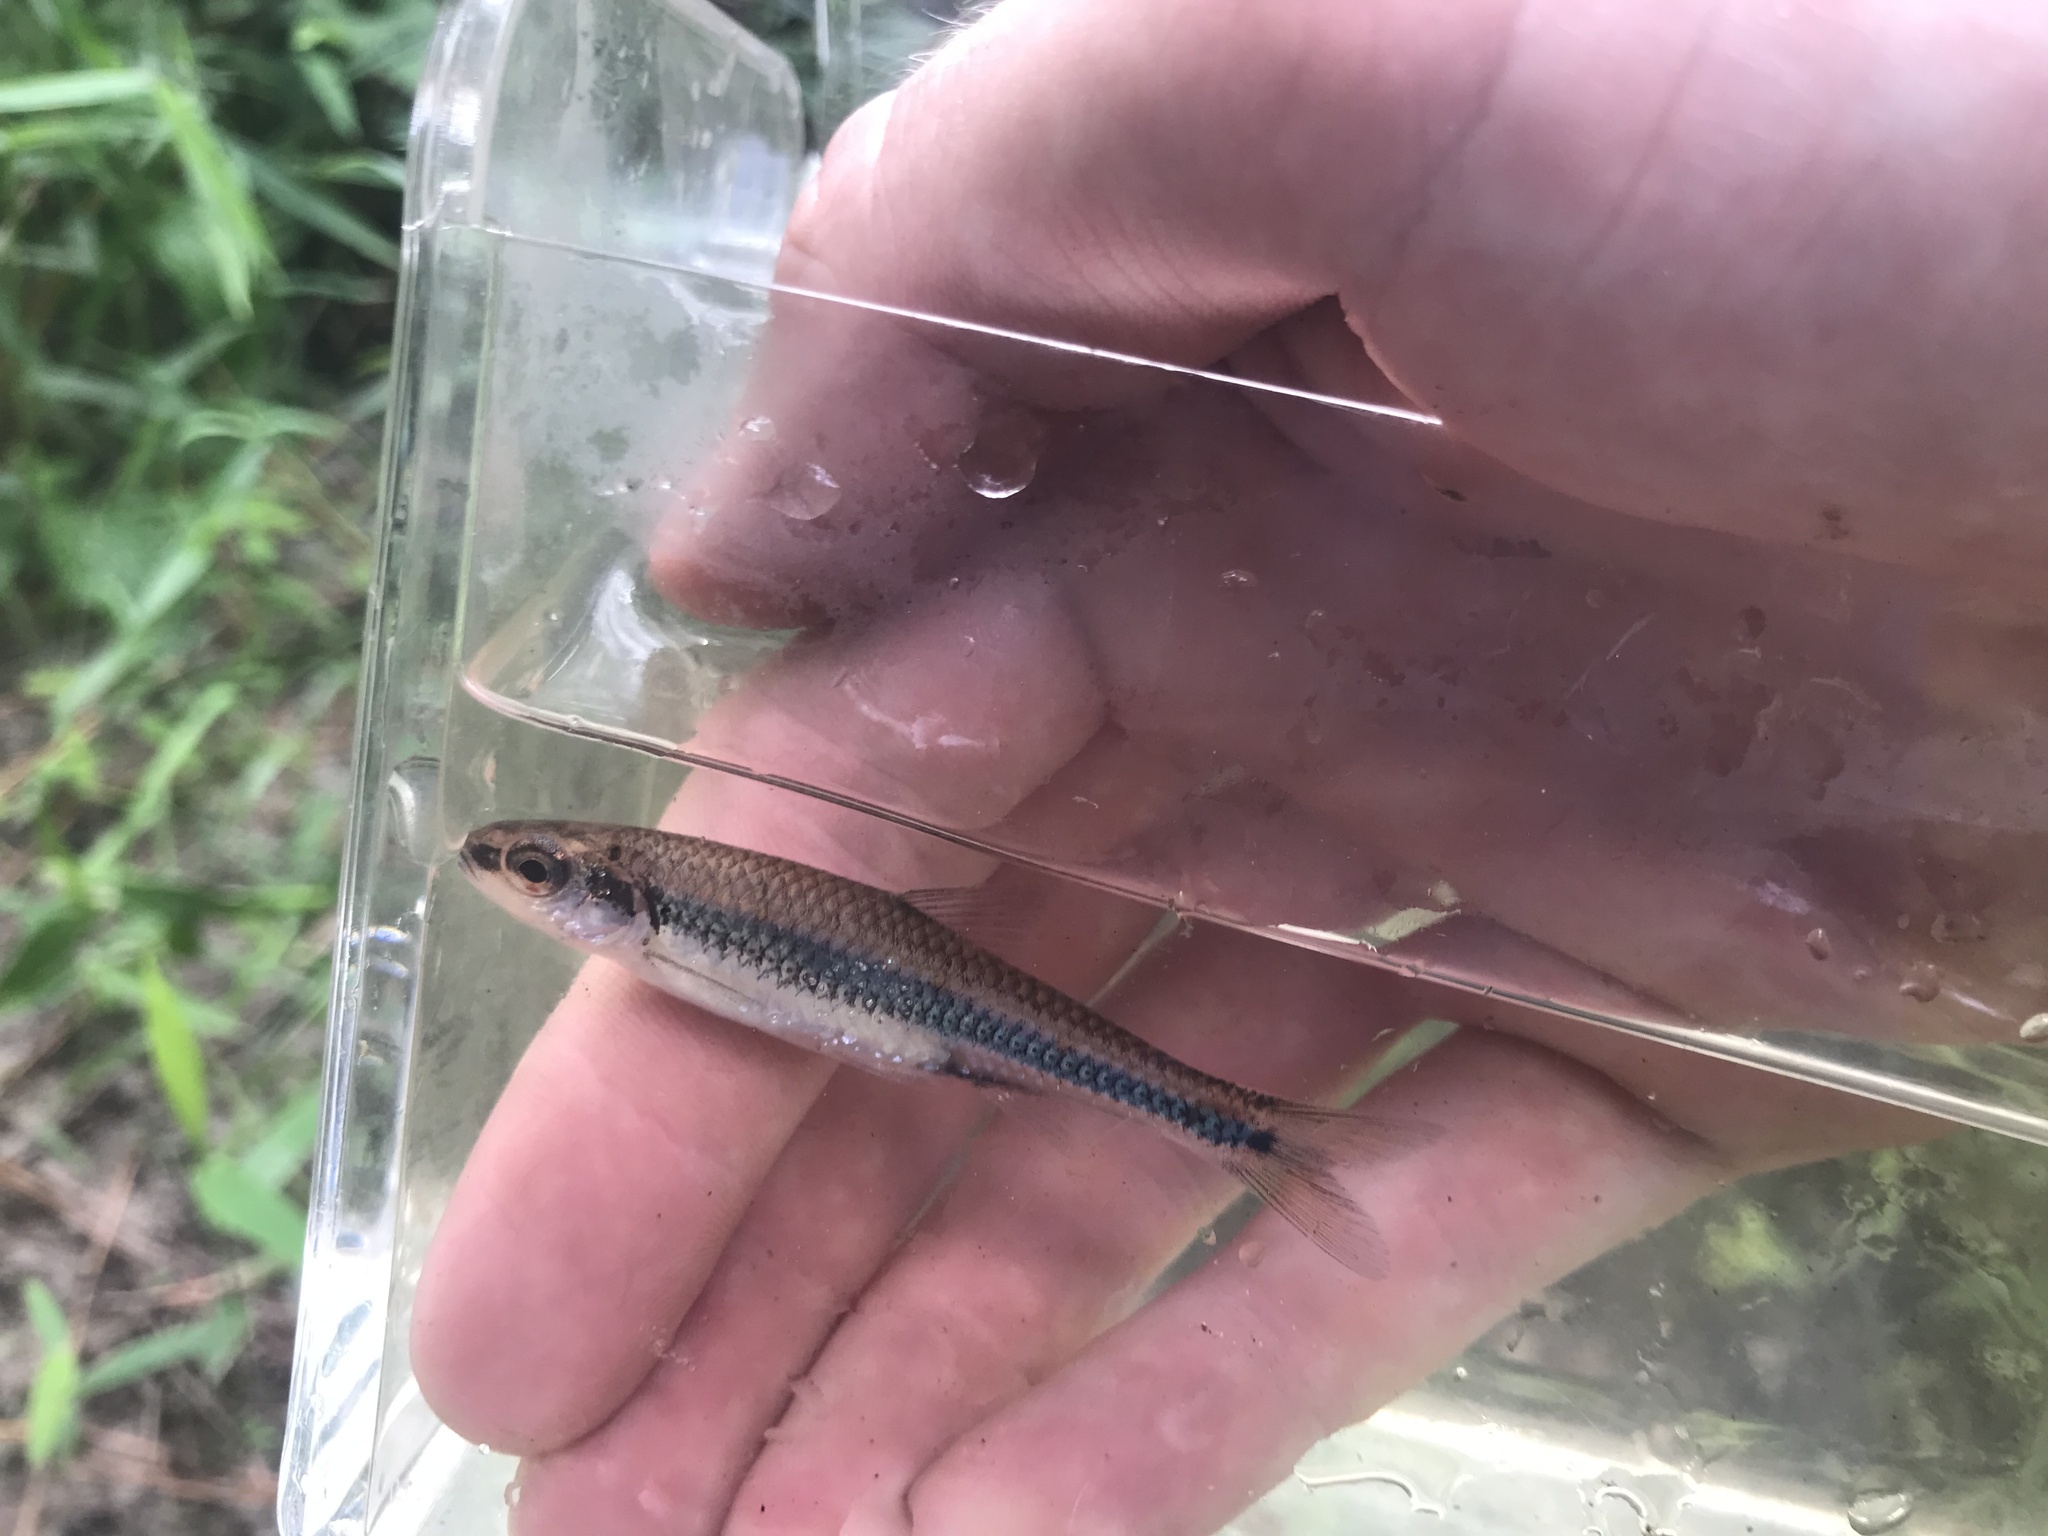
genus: Alburnops
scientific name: Alburnops
